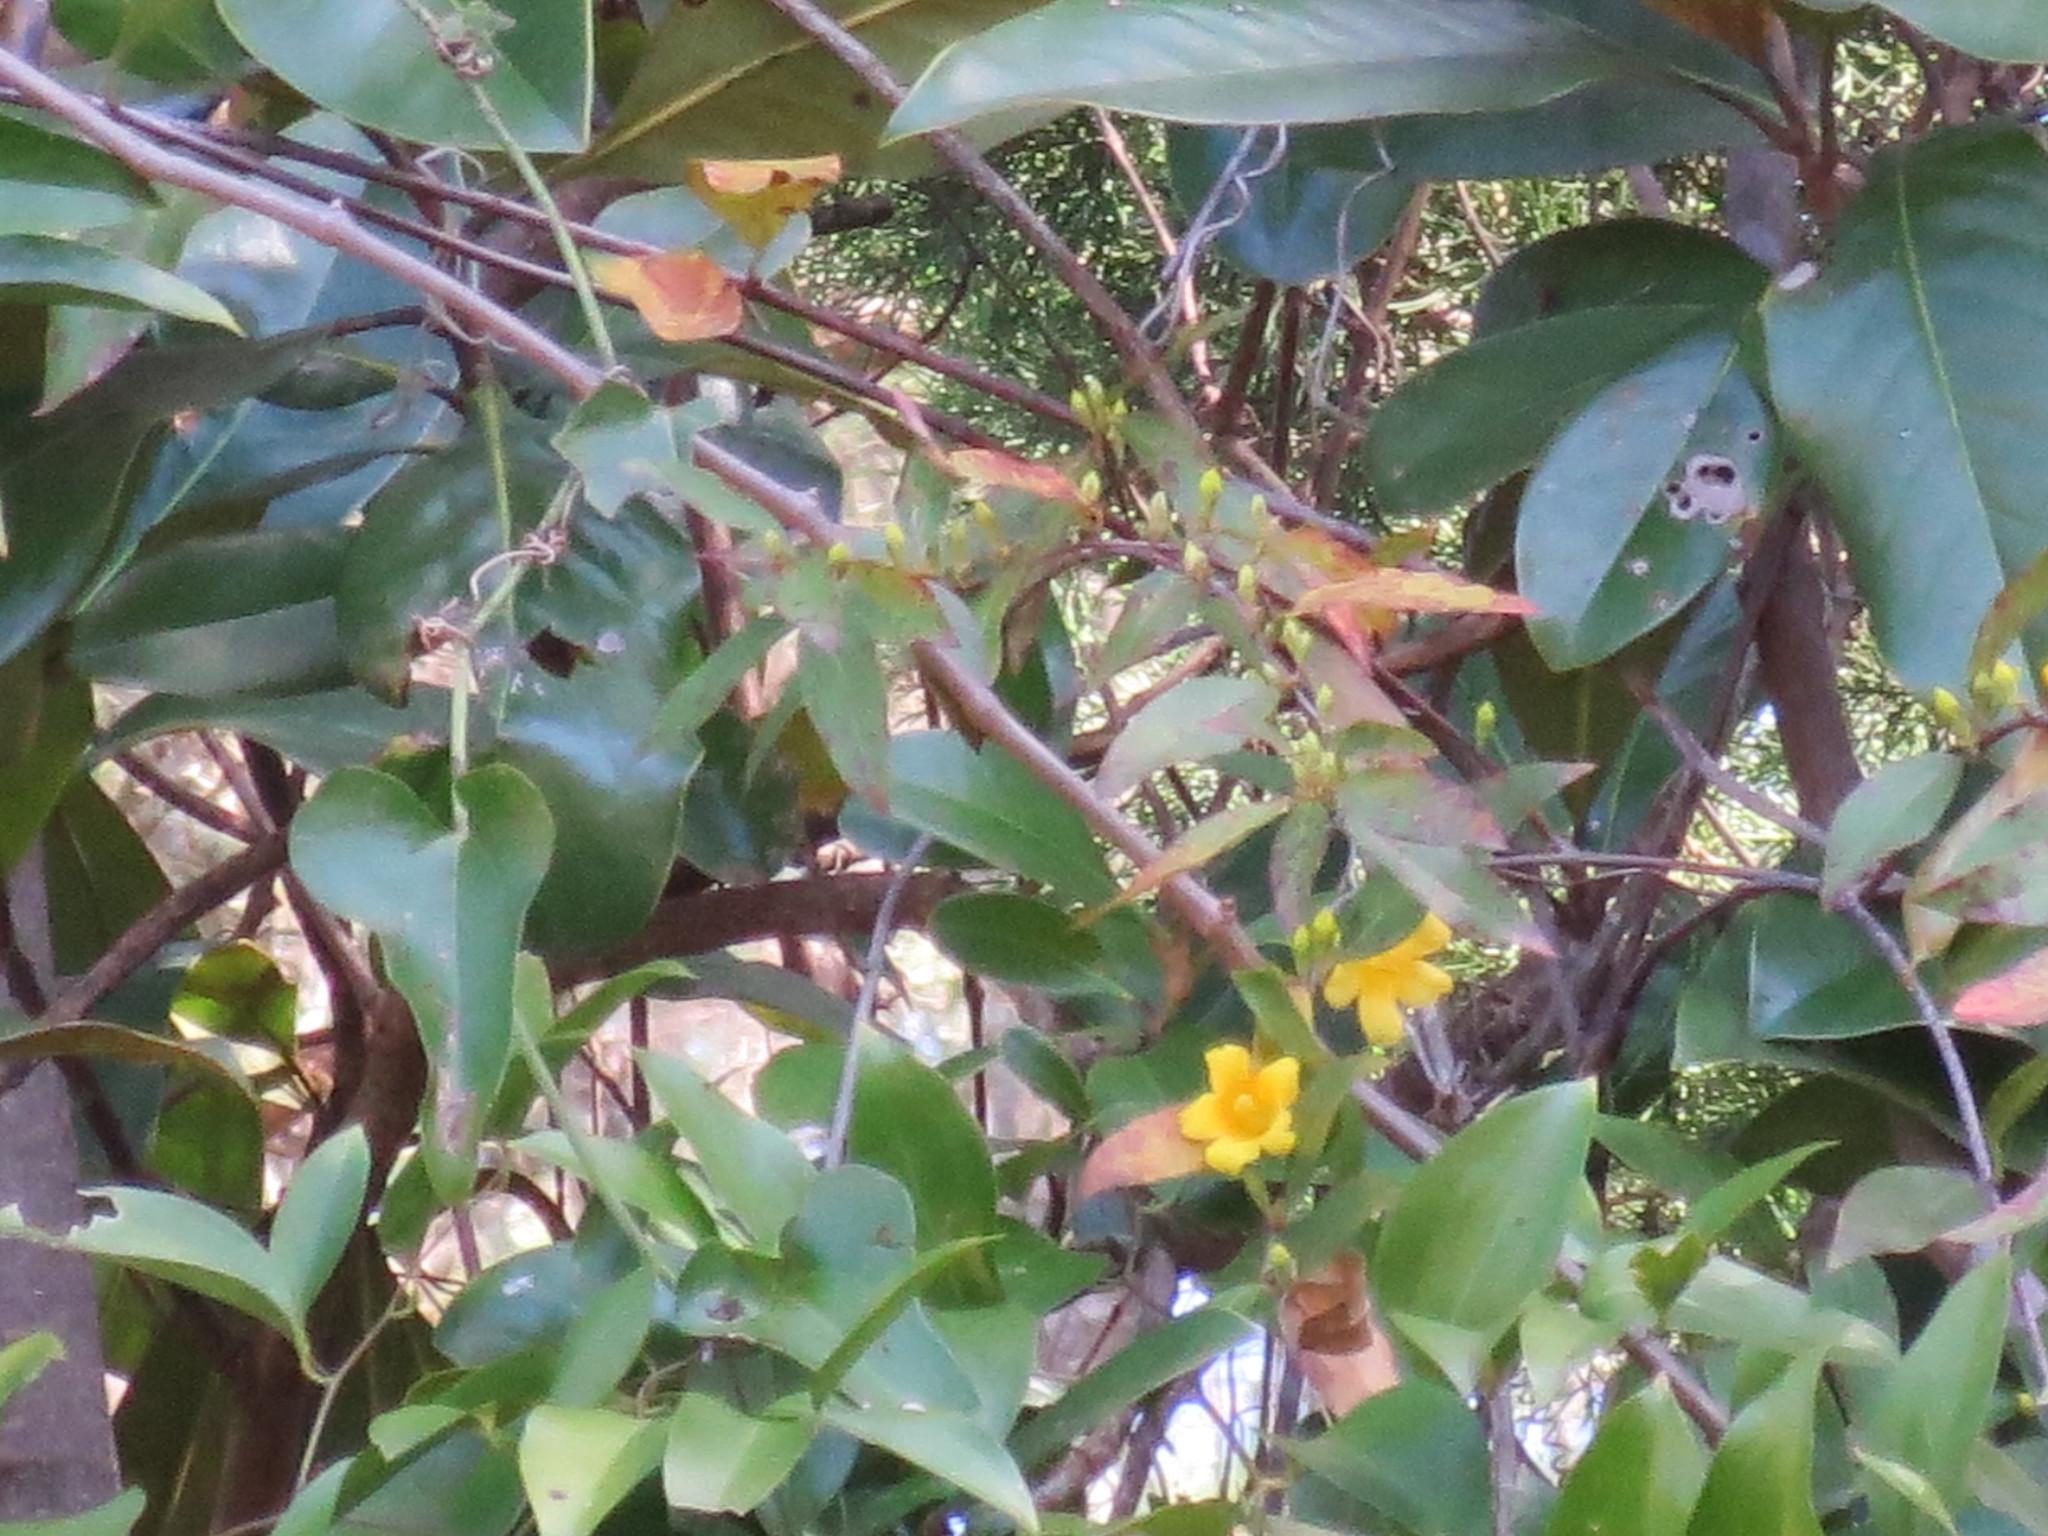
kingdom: Plantae
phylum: Tracheophyta
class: Magnoliopsida
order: Gentianales
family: Gelsemiaceae
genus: Gelsemium
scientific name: Gelsemium sempervirens
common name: Carolina-jasmine
